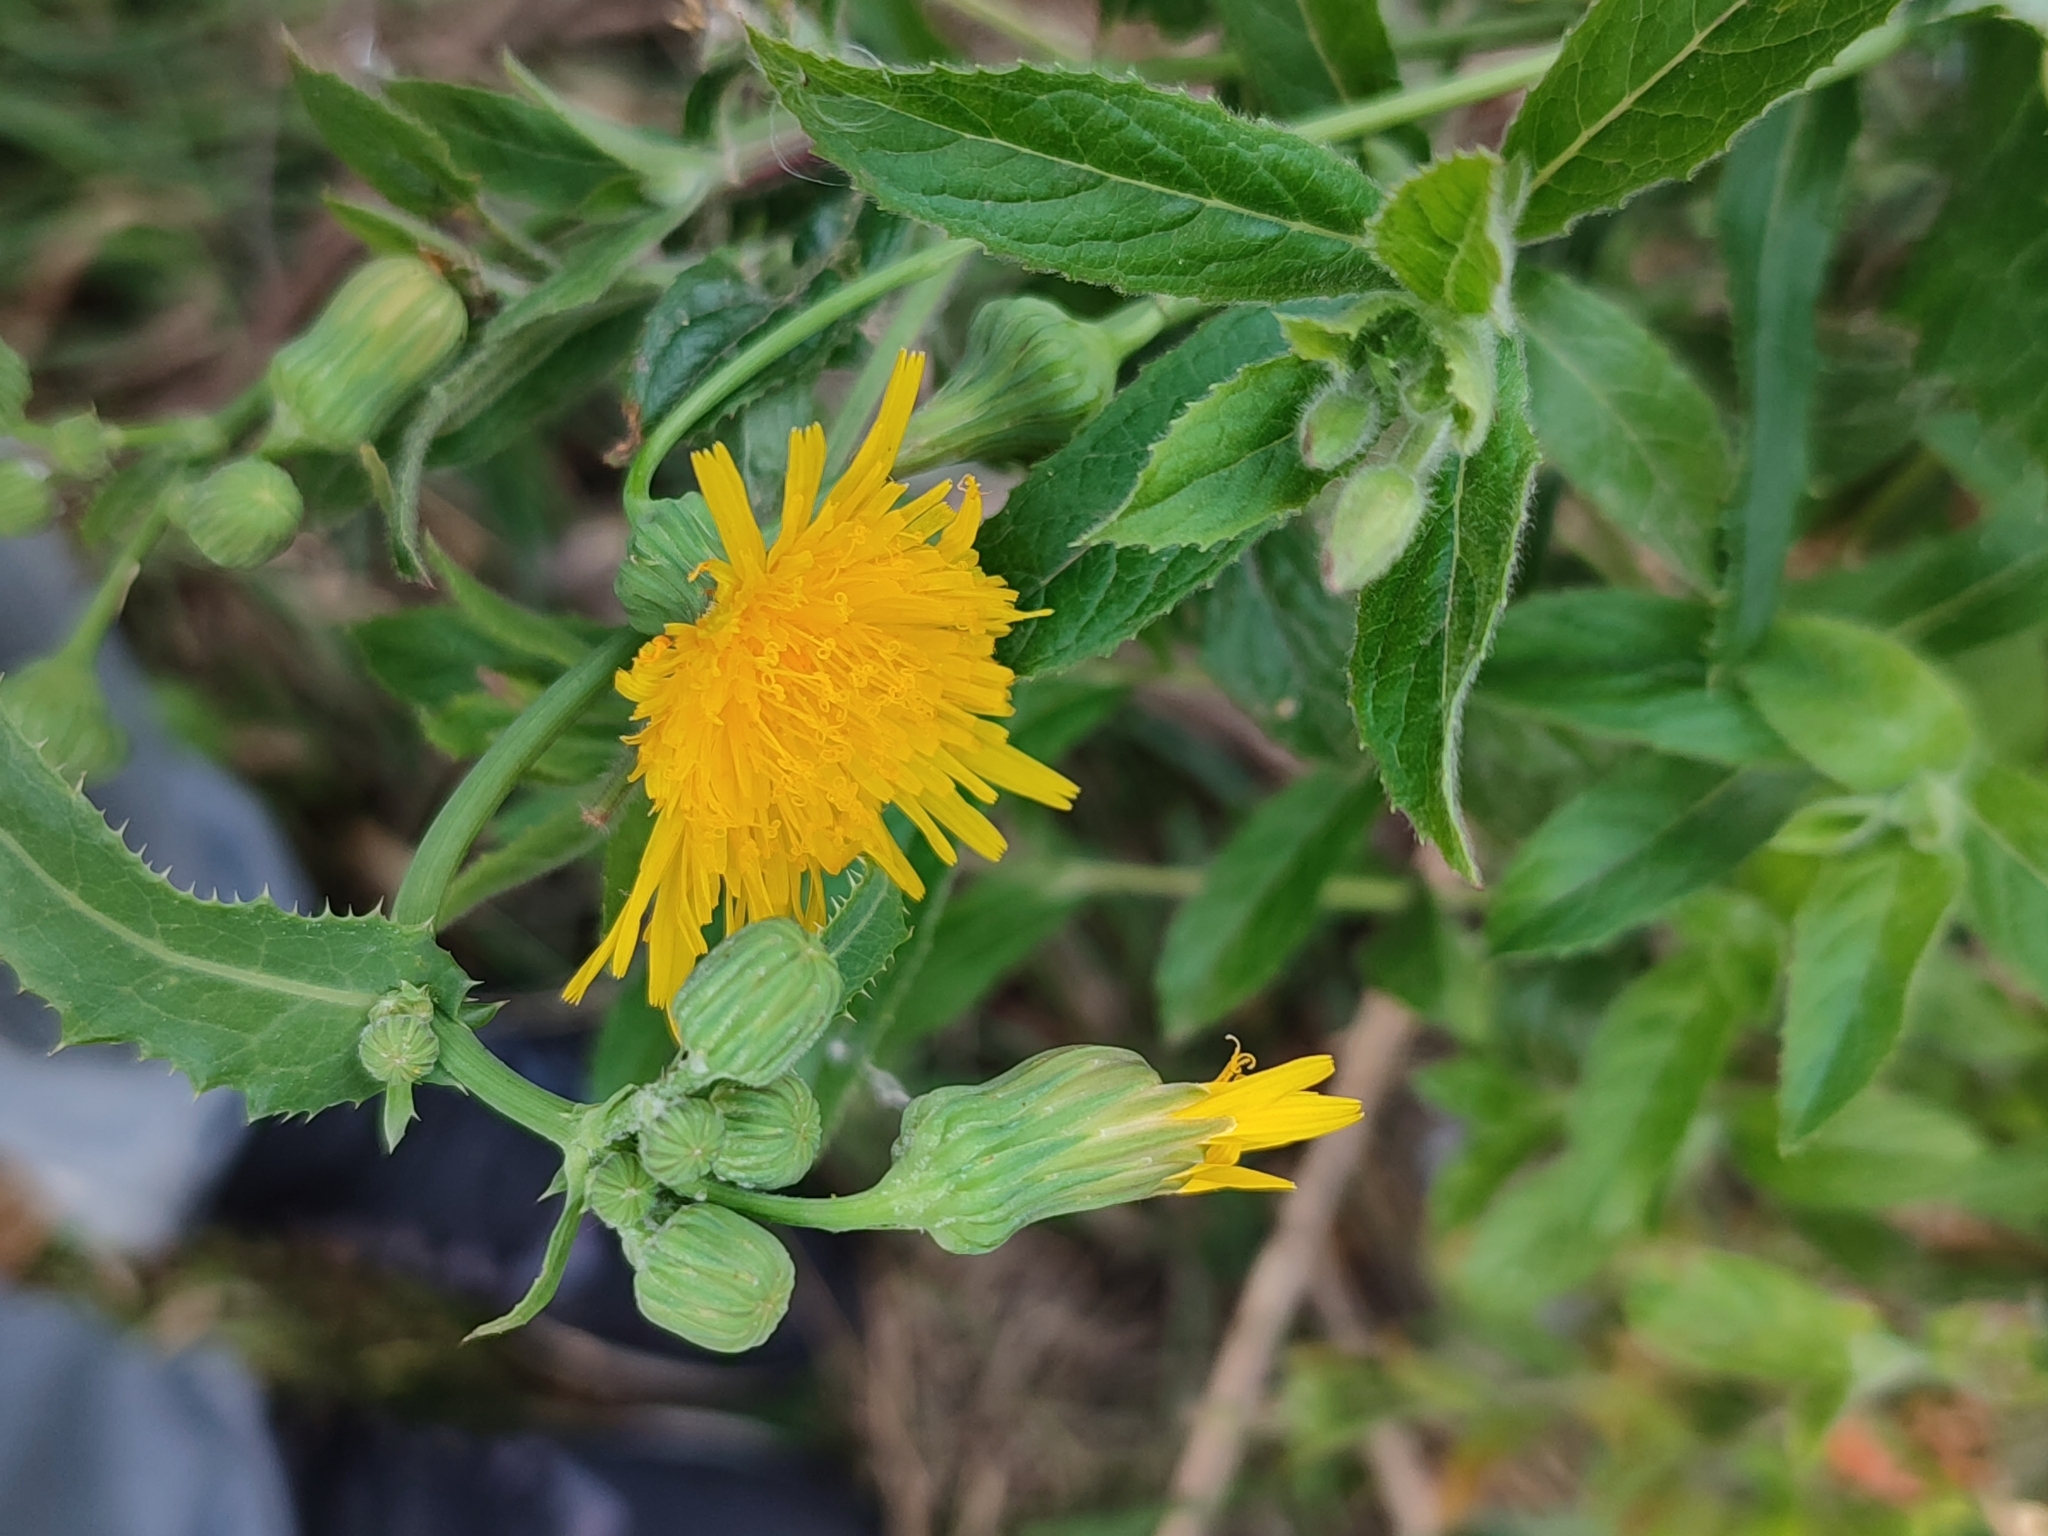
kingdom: Plantae
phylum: Tracheophyta
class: Magnoliopsida
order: Asterales
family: Asteraceae
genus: Sonchus
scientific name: Sonchus arvensis
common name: Perennial sow-thistle
